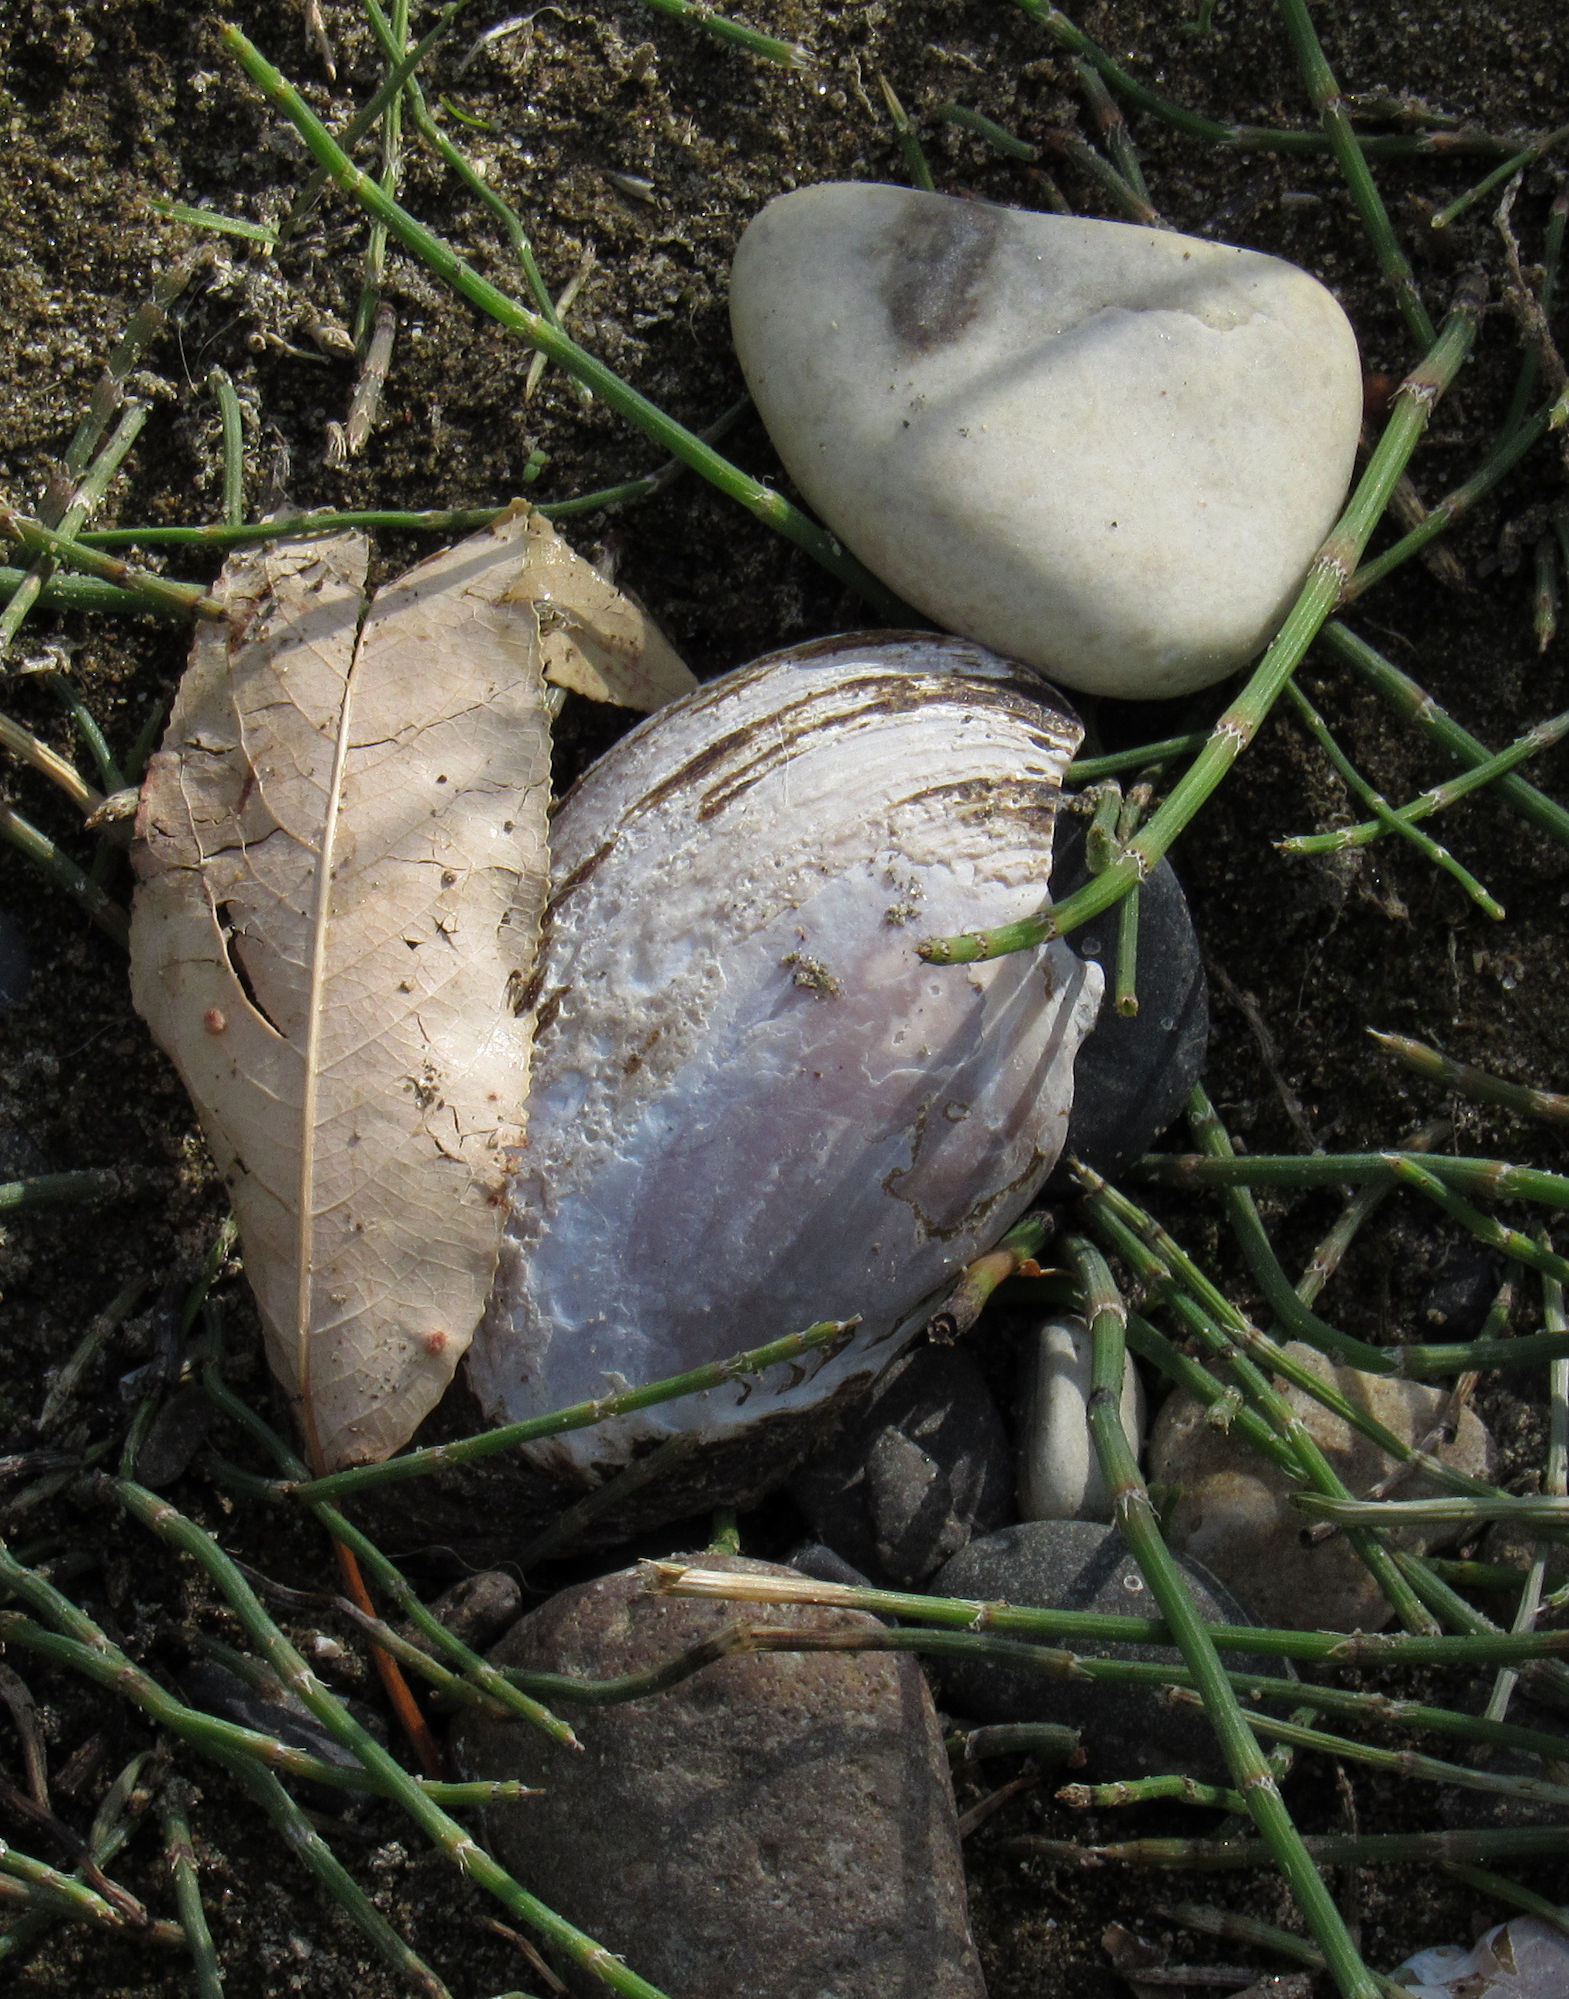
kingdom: Animalia
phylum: Mollusca
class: Bivalvia
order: Unionida
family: Margaritiferidae
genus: Margaritifera
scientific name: Margaritifera falcata
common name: Western pearlshell
